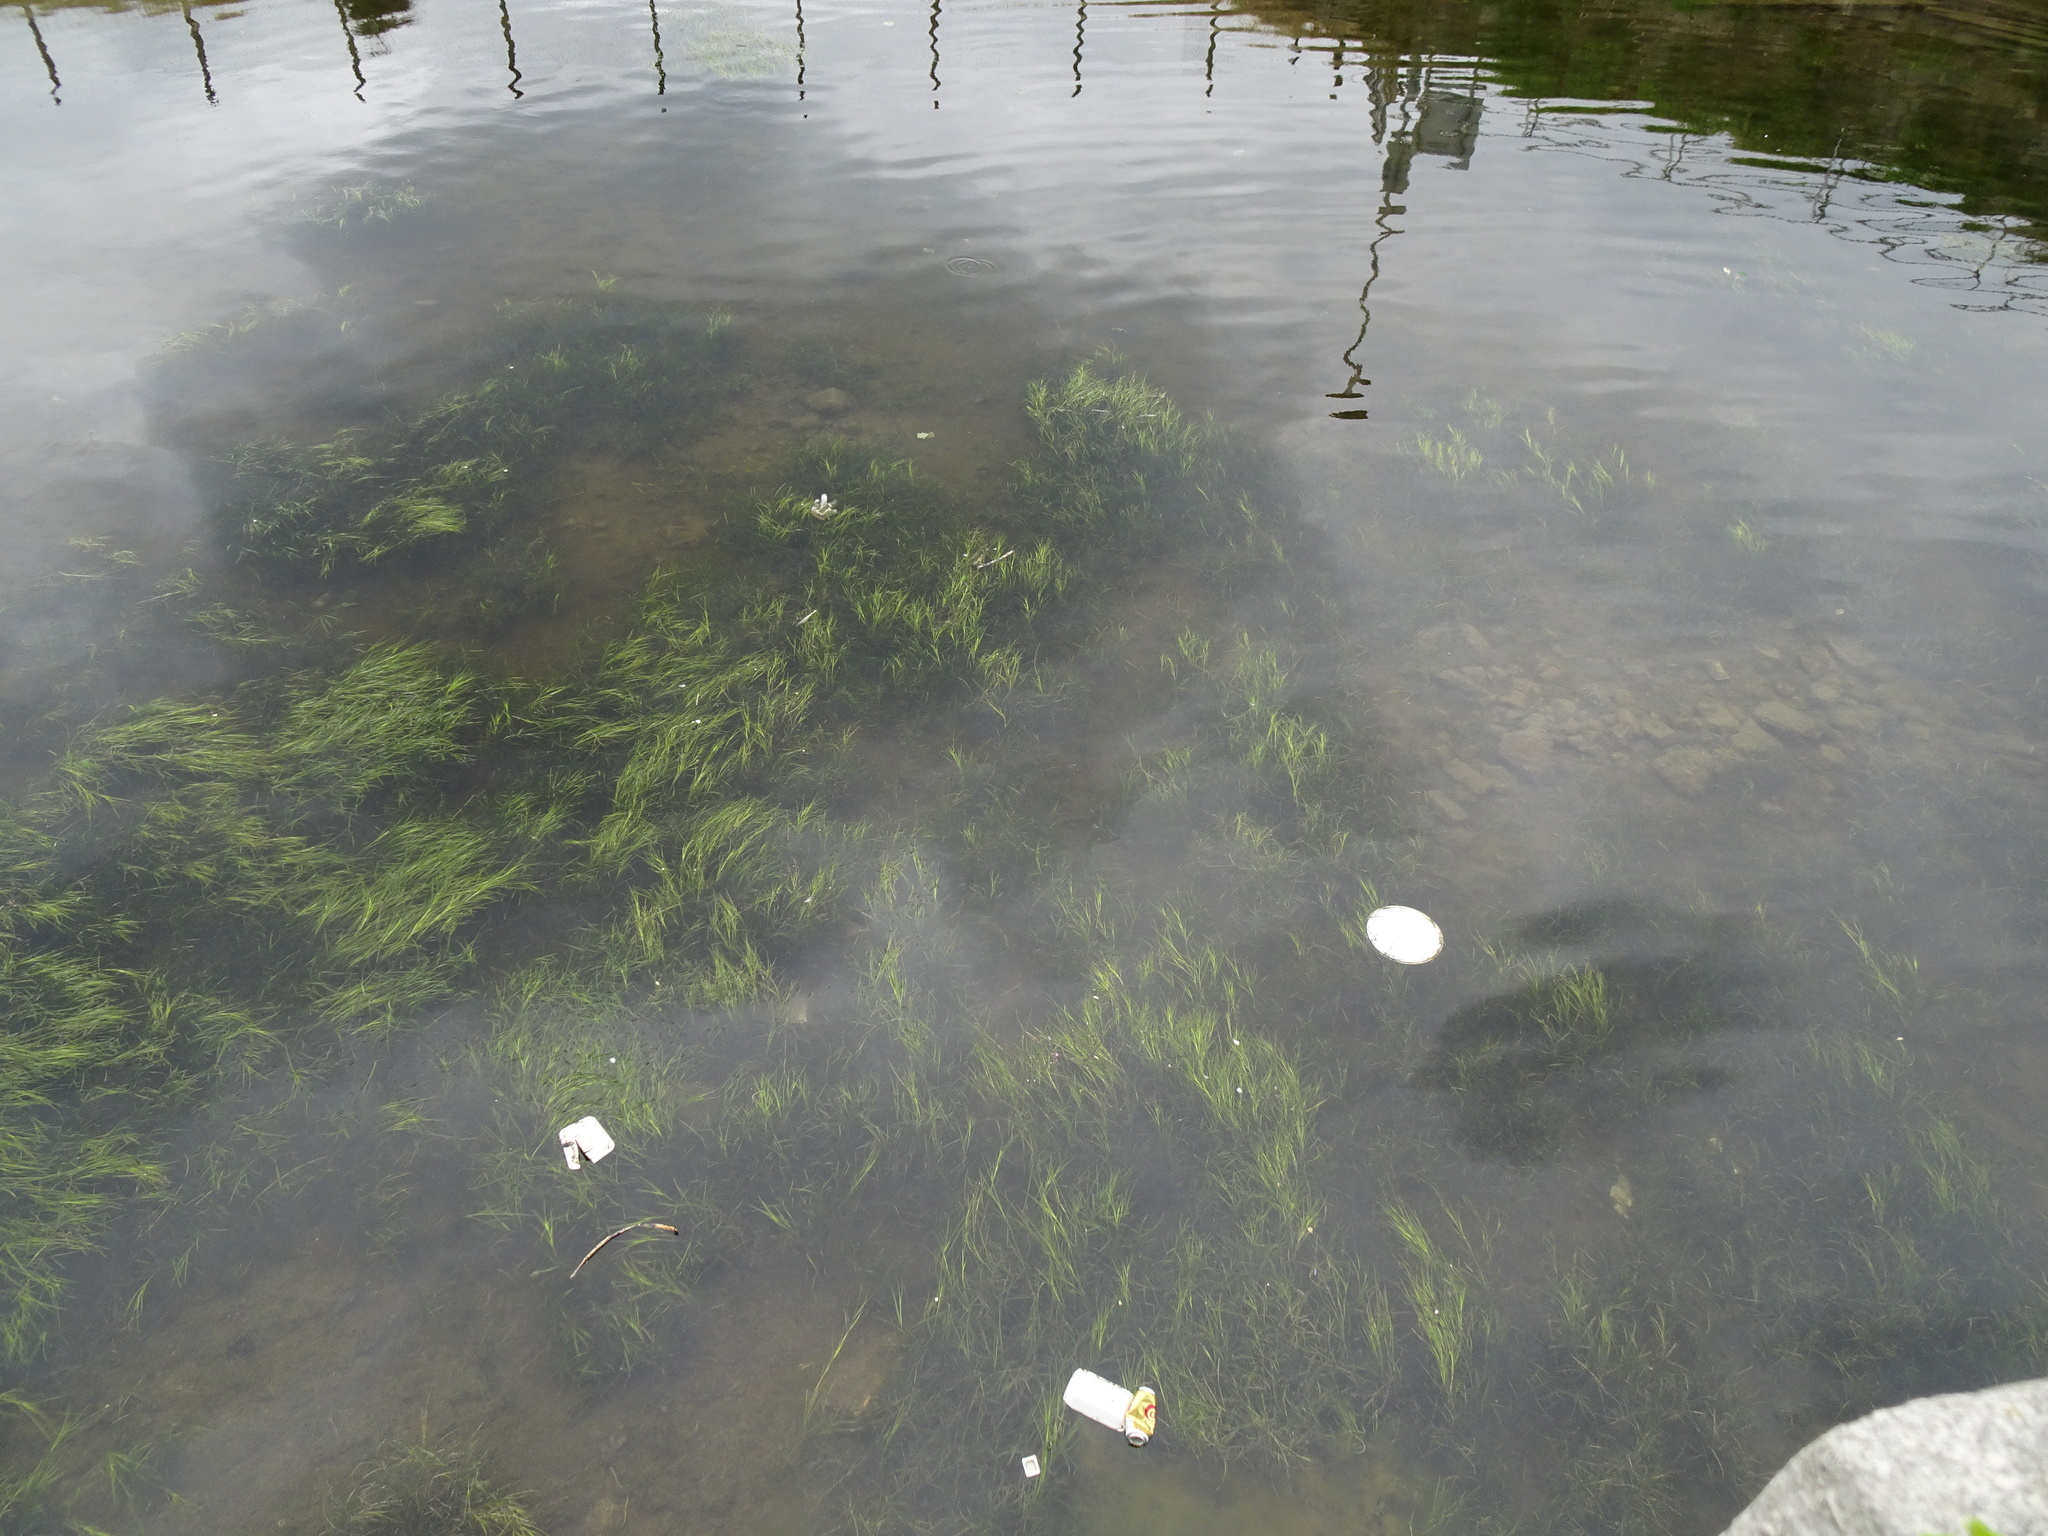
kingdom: Plantae
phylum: Tracheophyta
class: Liliopsida
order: Alismatales
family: Zosteraceae
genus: Zostera
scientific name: Zostera marina
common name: Eelgrass
